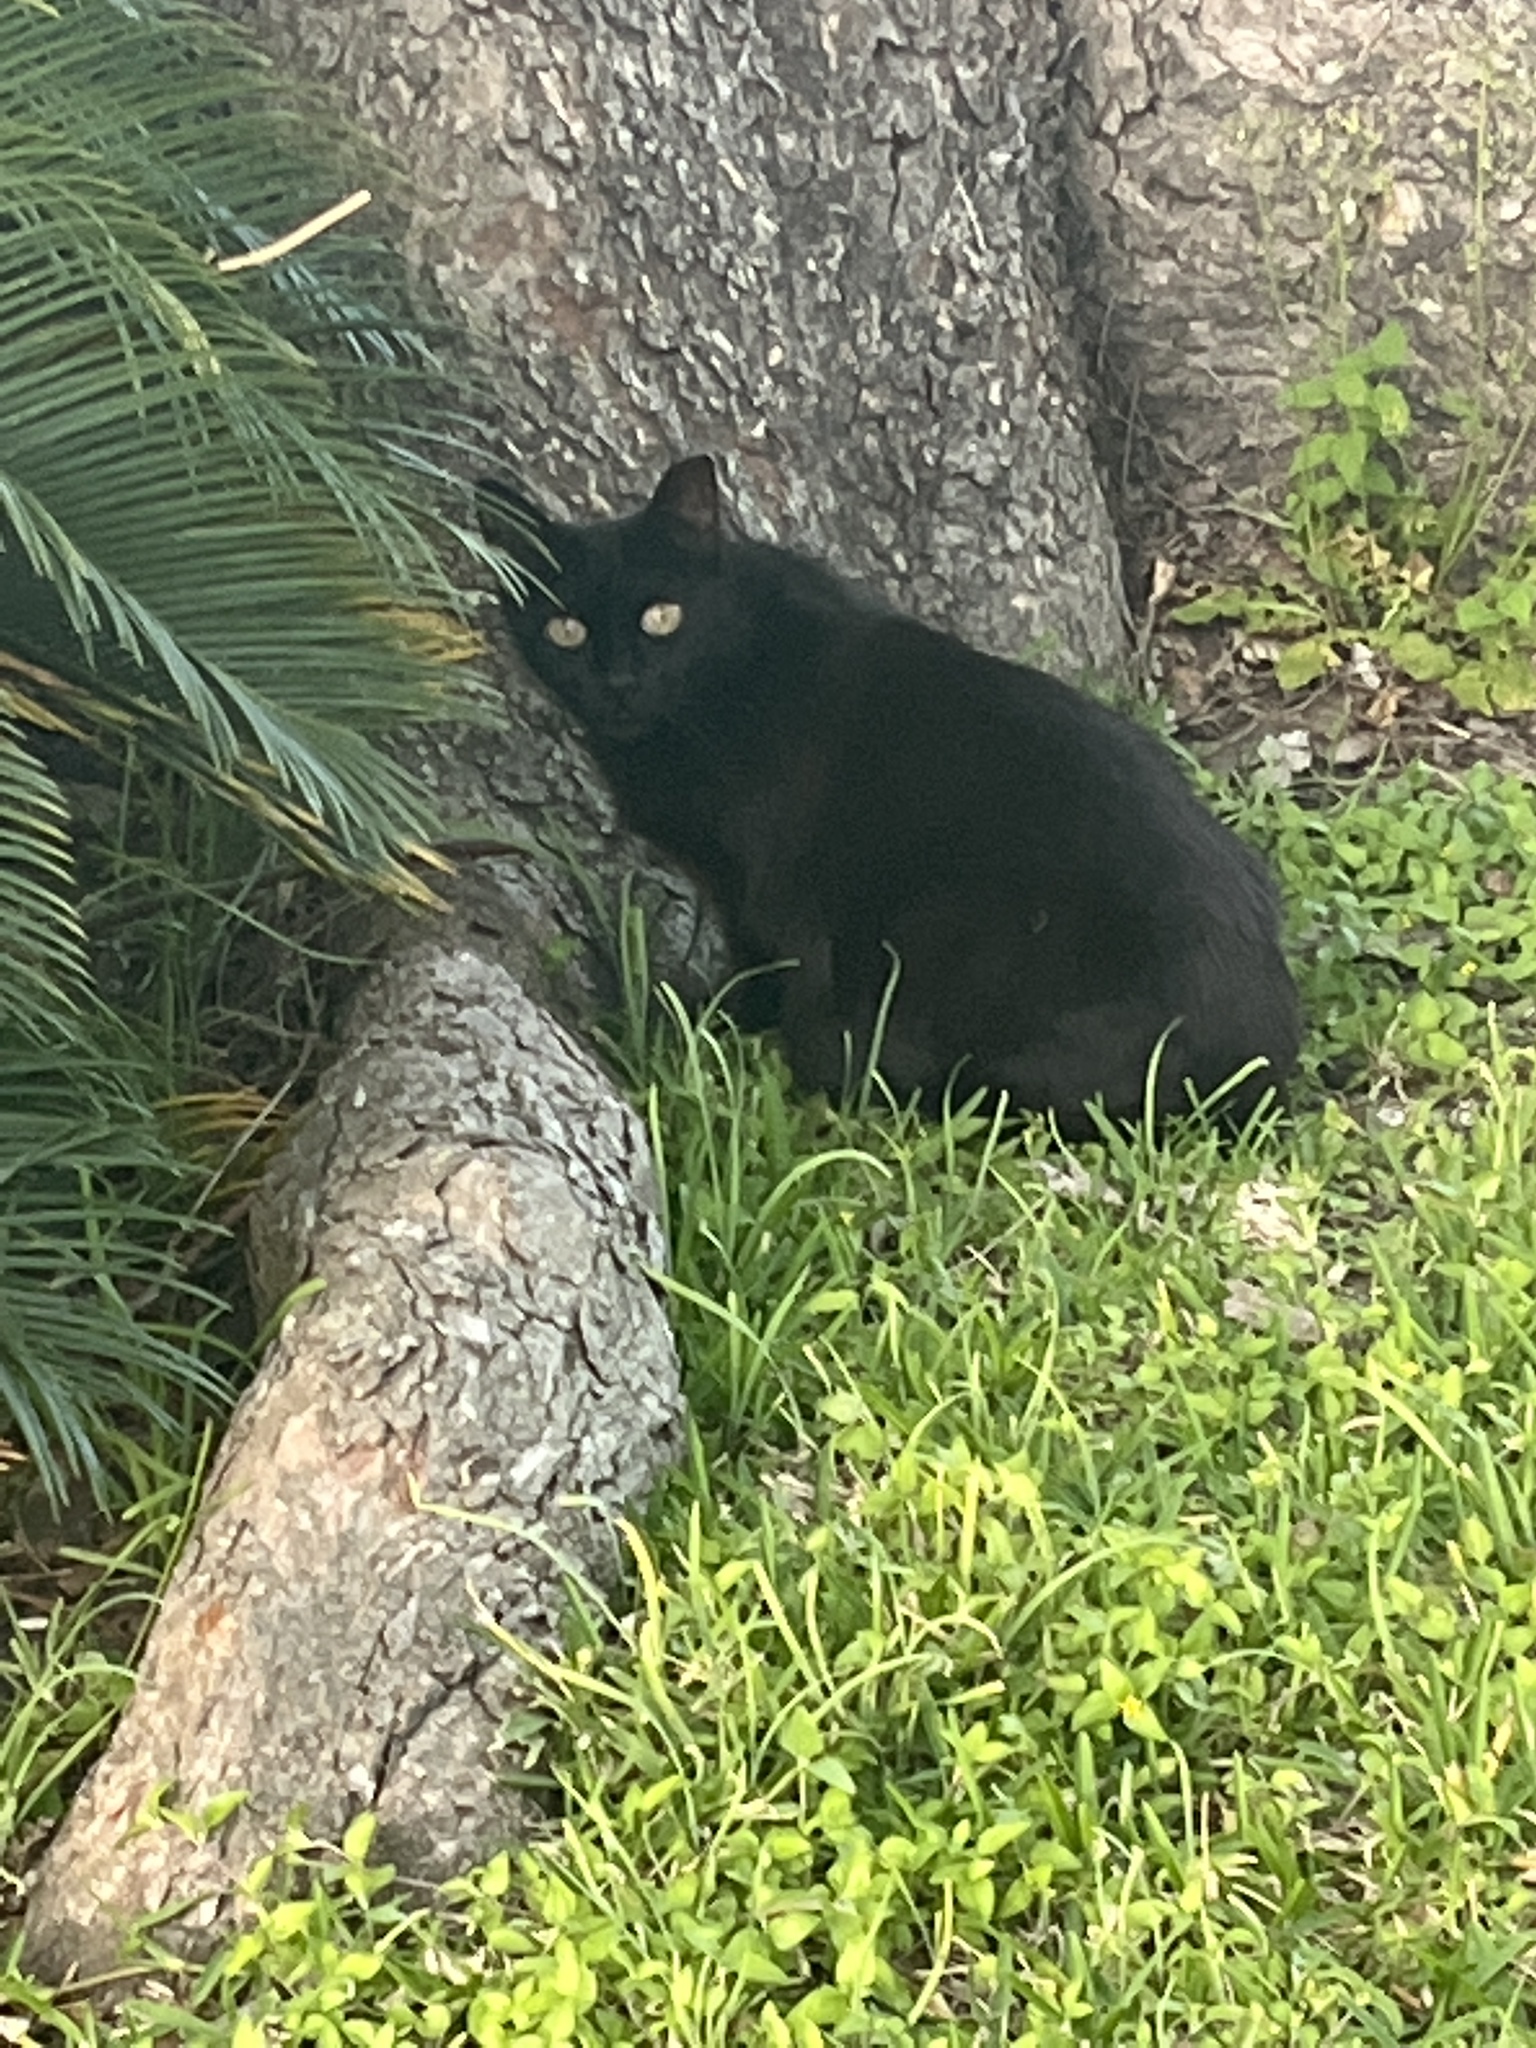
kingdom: Animalia
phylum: Chordata
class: Mammalia
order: Carnivora
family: Felidae
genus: Felis
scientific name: Felis catus
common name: Domestic cat
